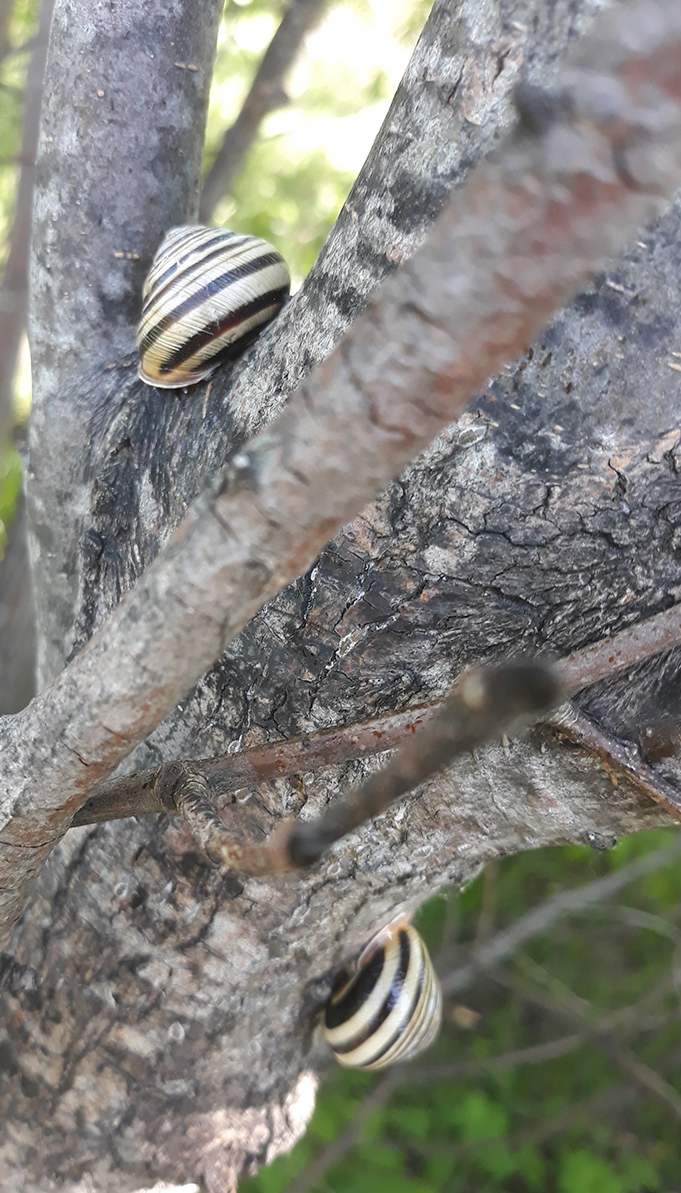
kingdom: Animalia
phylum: Mollusca
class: Gastropoda
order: Stylommatophora
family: Helicidae
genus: Caucasotachea
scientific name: Caucasotachea vindobonensis
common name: European helicid land snail
